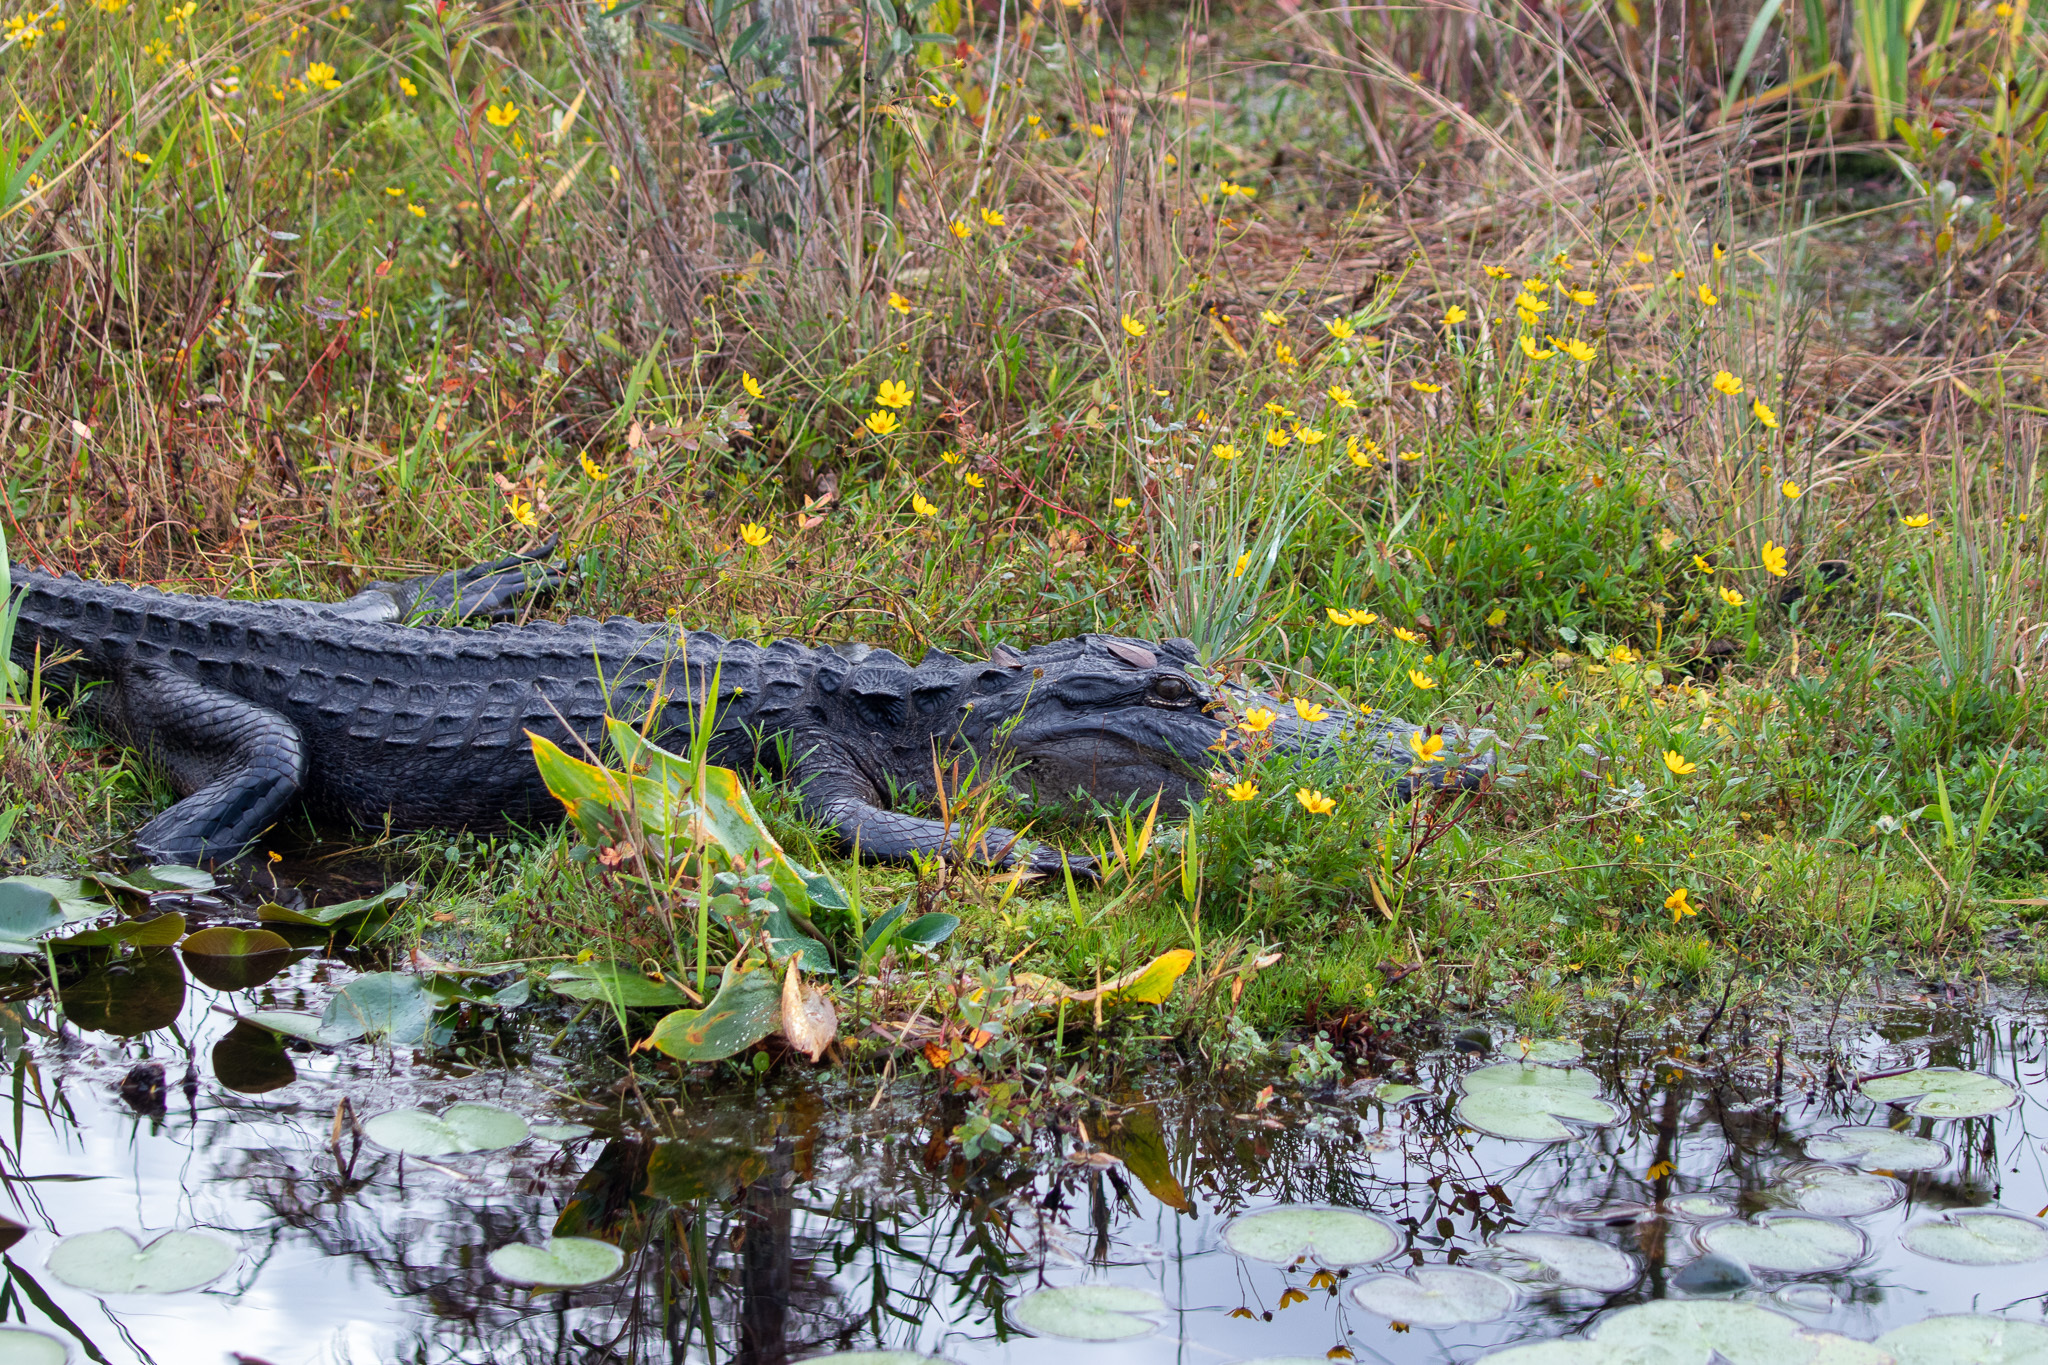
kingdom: Animalia
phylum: Chordata
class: Crocodylia
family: Alligatoridae
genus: Alligator
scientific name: Alligator mississippiensis
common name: American alligator
